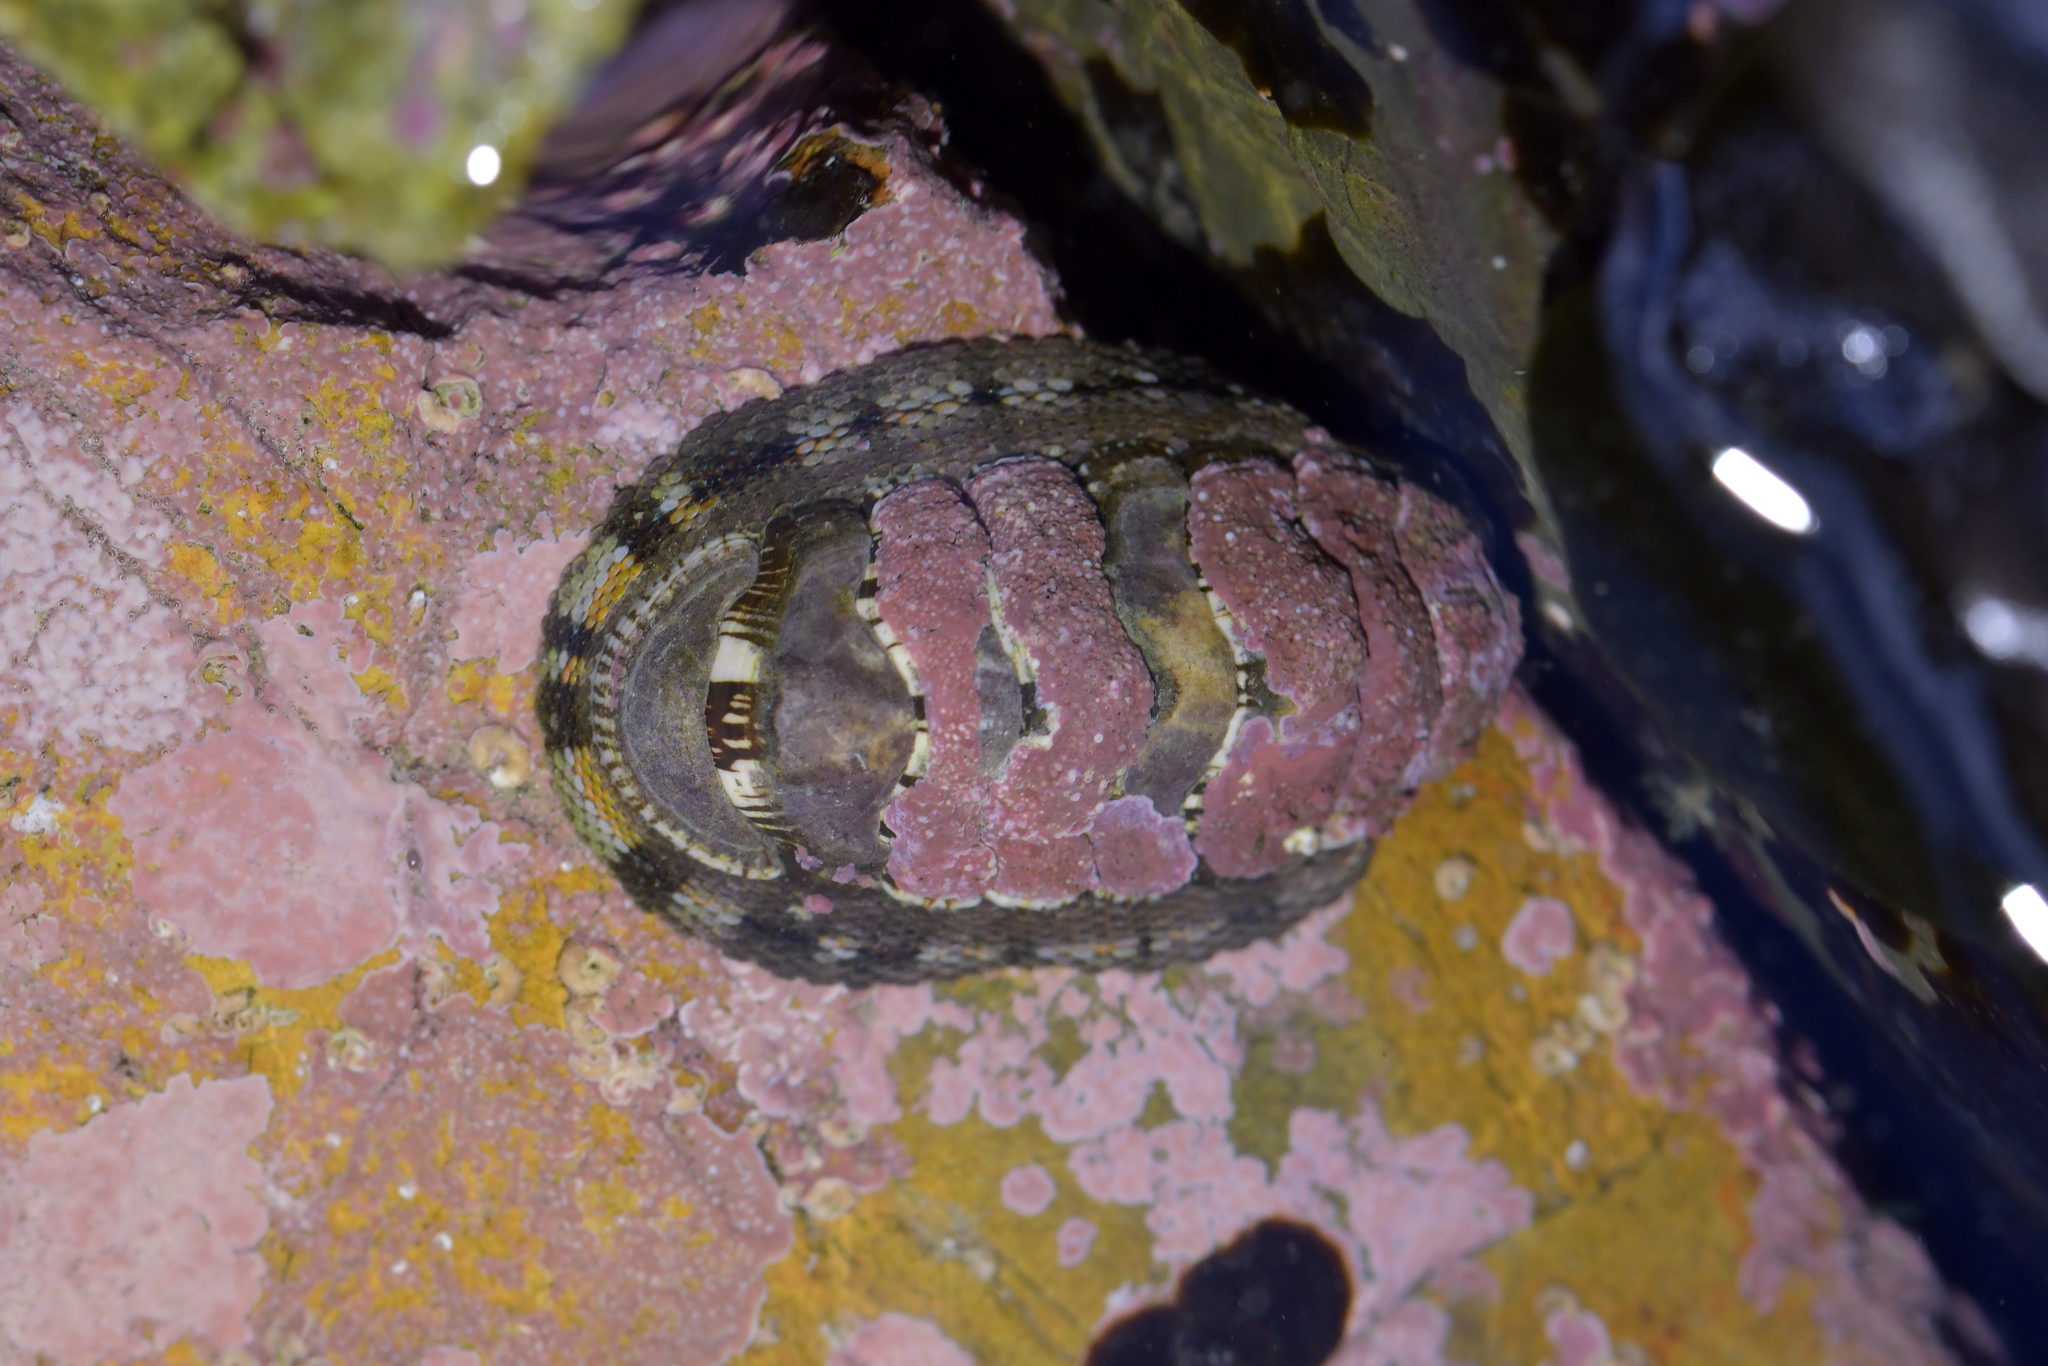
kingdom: Animalia
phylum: Mollusca
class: Polyplacophora
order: Chitonida
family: Chitonidae
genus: Sypharochiton
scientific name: Sypharochiton sinclairi
